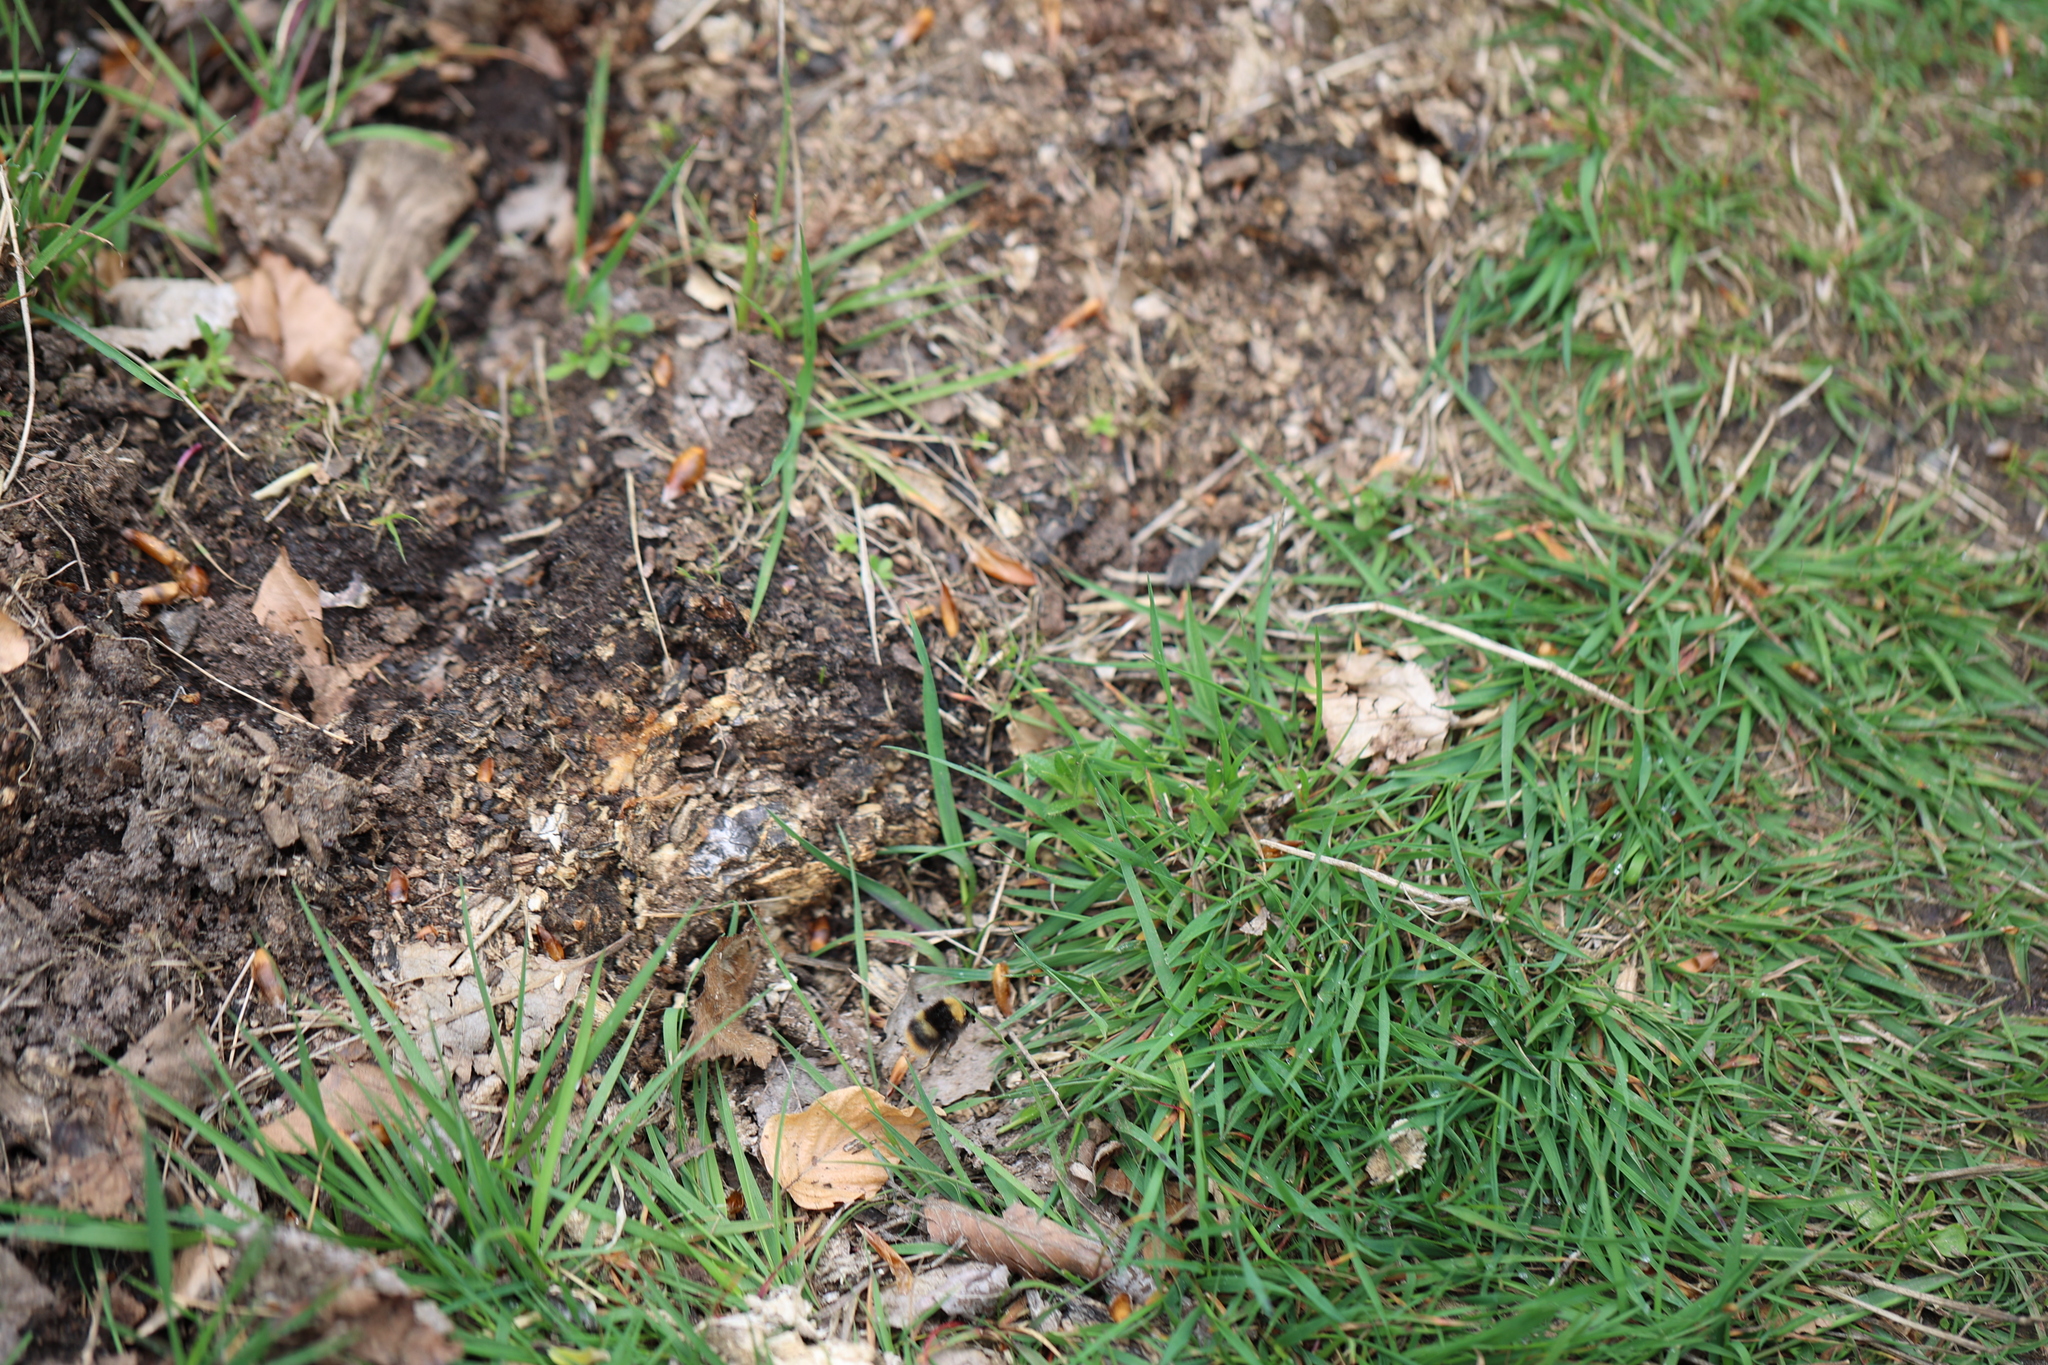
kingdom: Animalia
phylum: Arthropoda
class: Insecta
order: Hymenoptera
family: Apidae
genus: Bombus
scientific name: Bombus pratorum
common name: Early humble-bee
